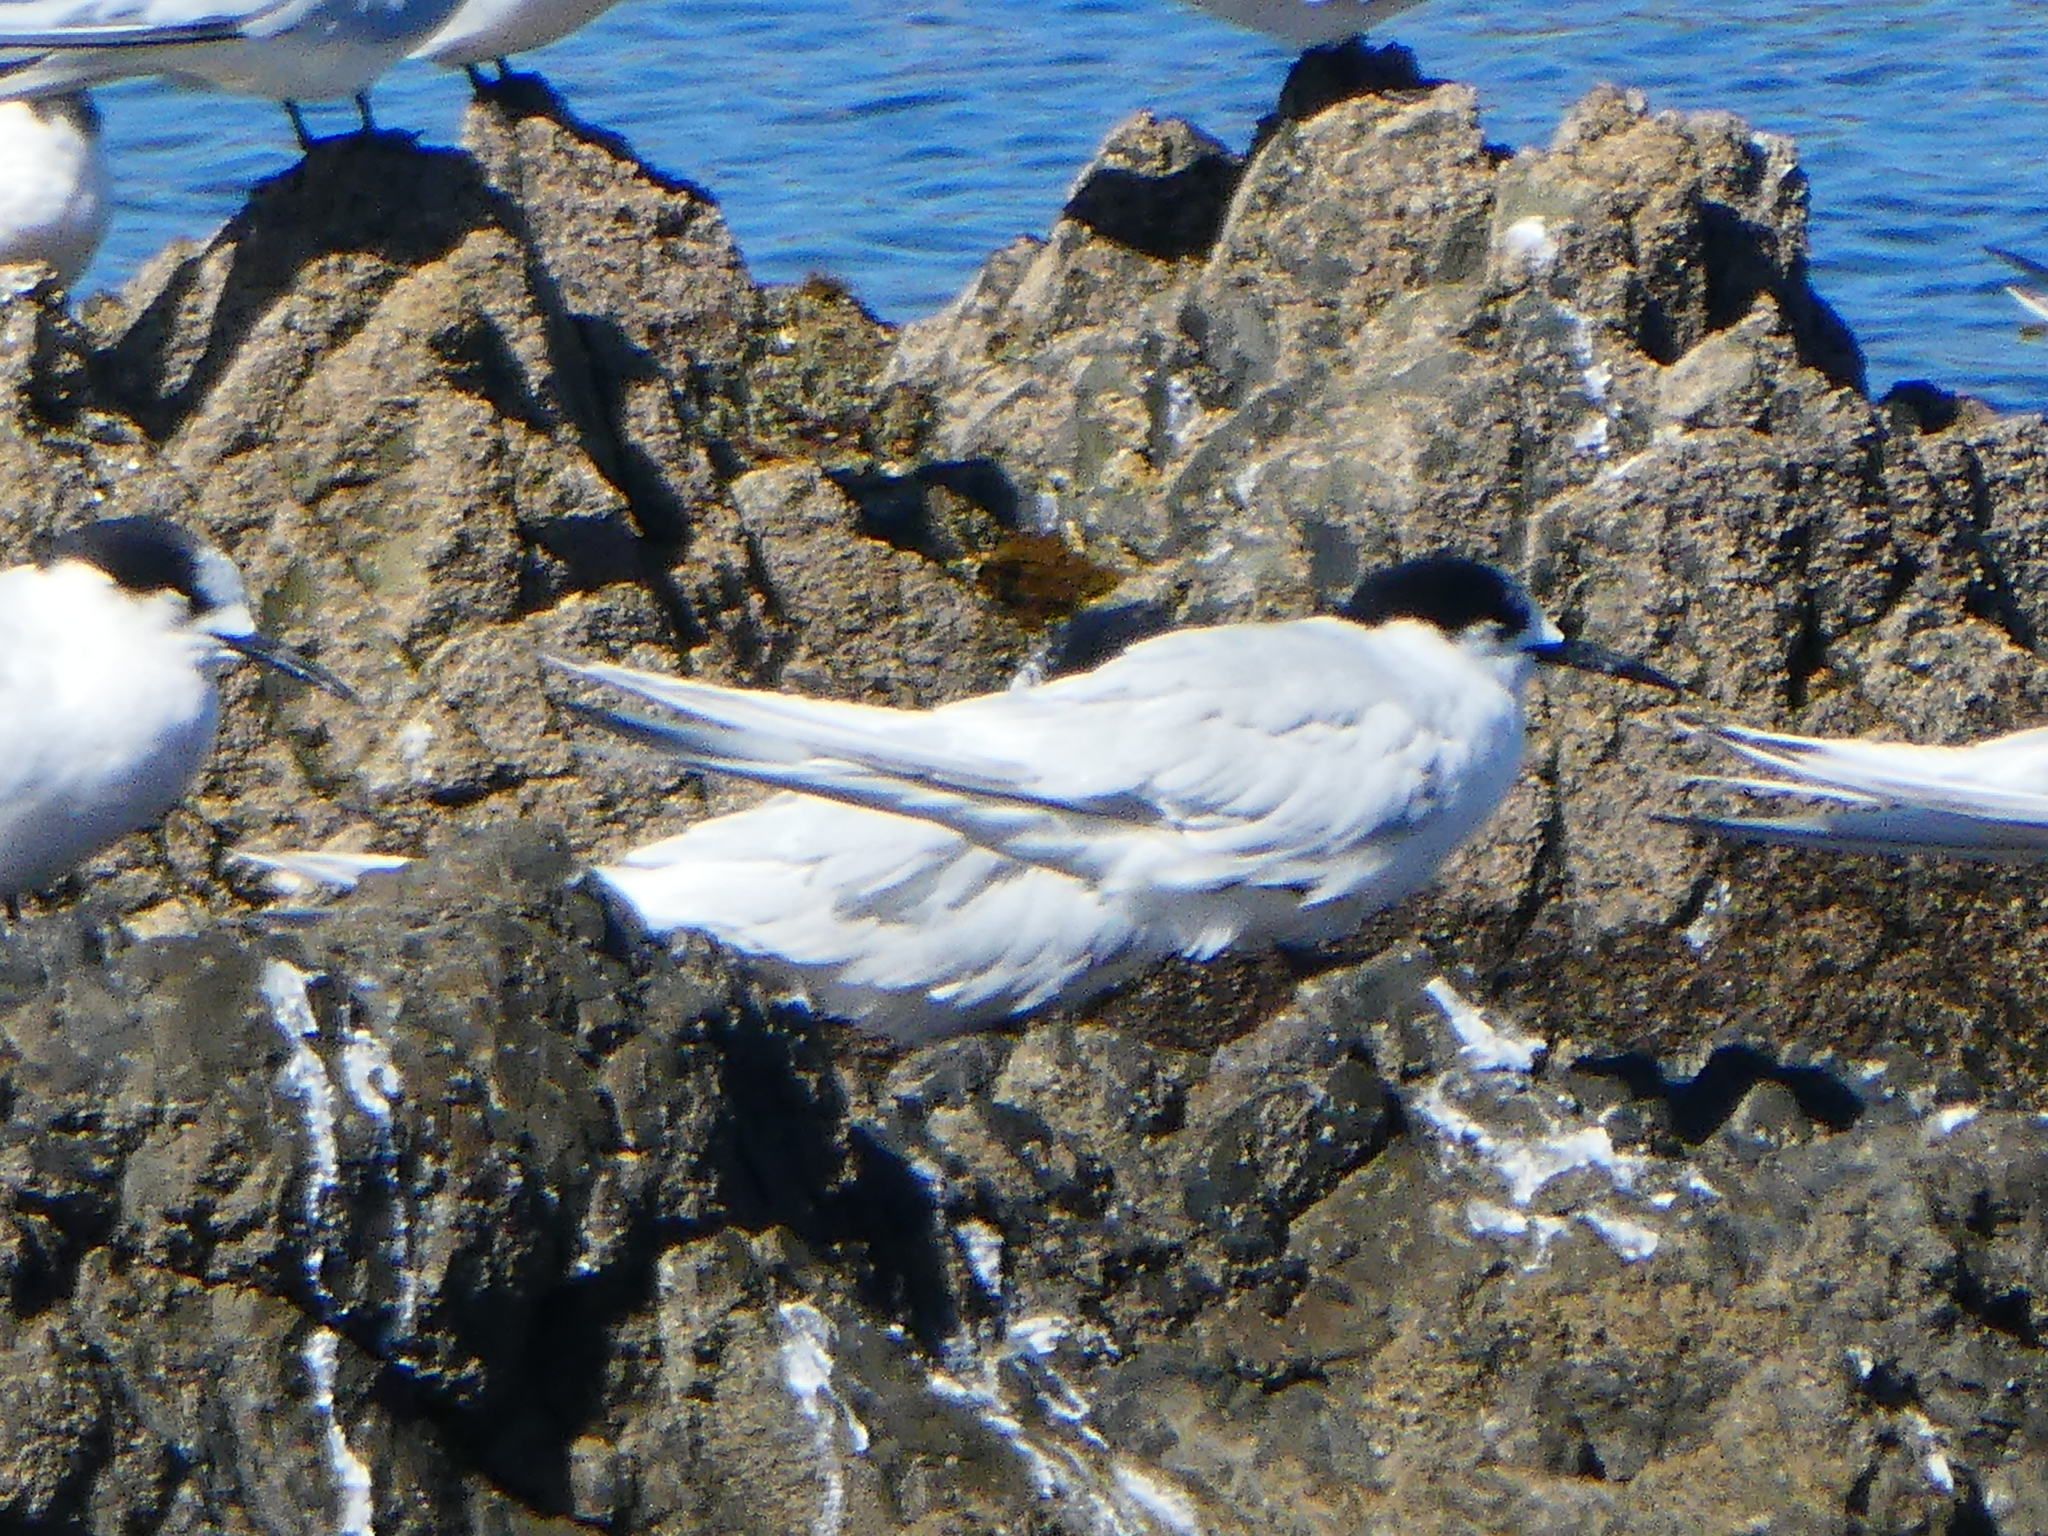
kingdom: Animalia
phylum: Chordata
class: Aves
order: Charadriiformes
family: Laridae
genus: Sterna
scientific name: Sterna striata
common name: White-fronted tern
